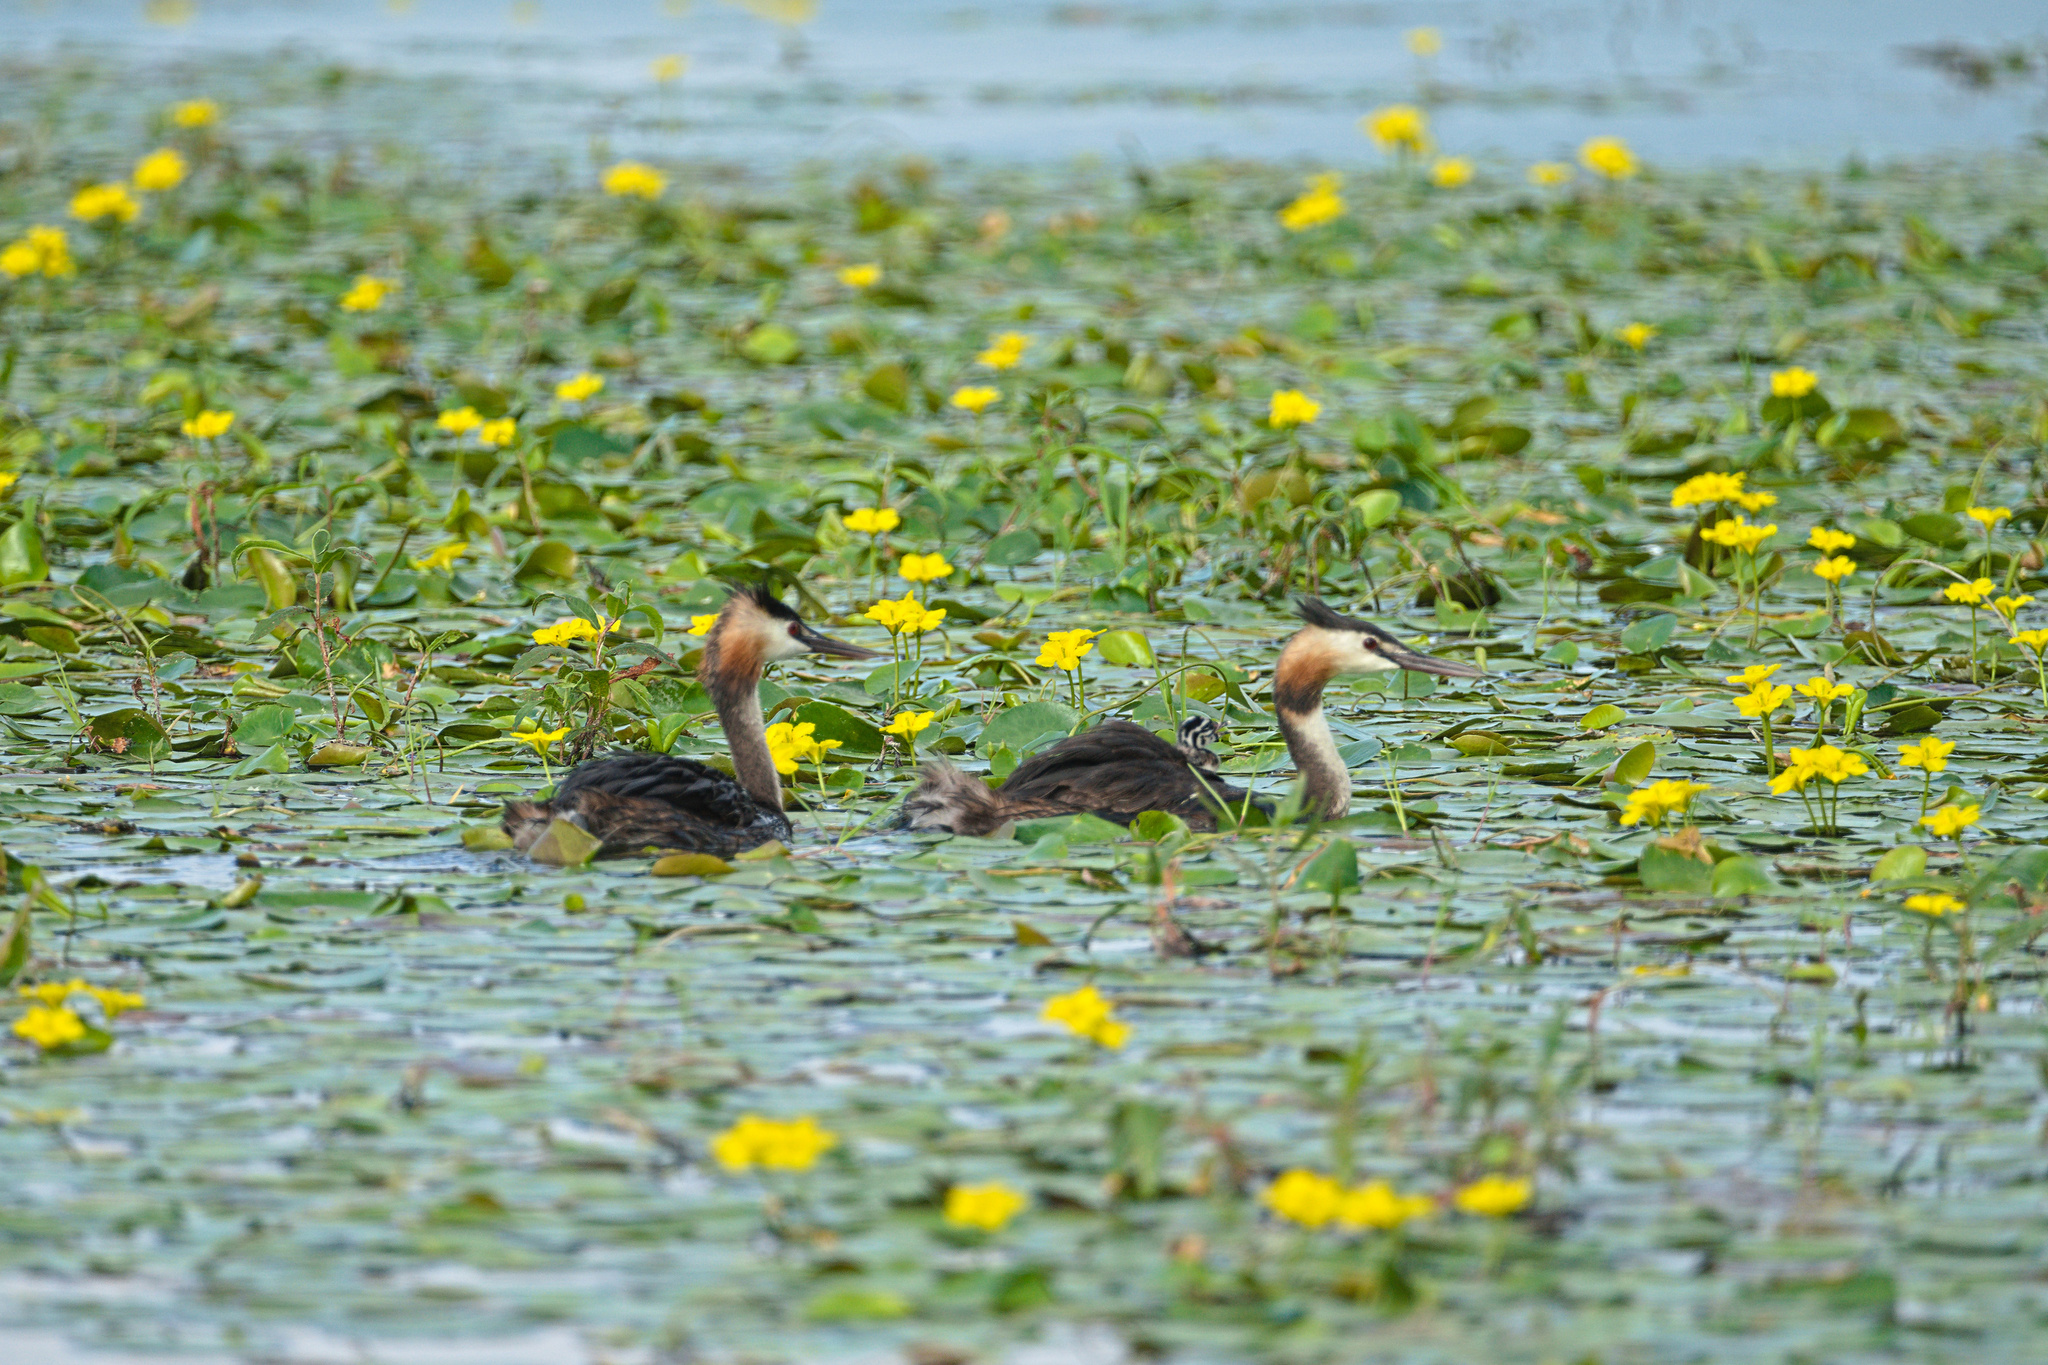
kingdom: Animalia
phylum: Chordata
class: Aves
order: Podicipediformes
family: Podicipedidae
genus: Podiceps
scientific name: Podiceps cristatus
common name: Great crested grebe
